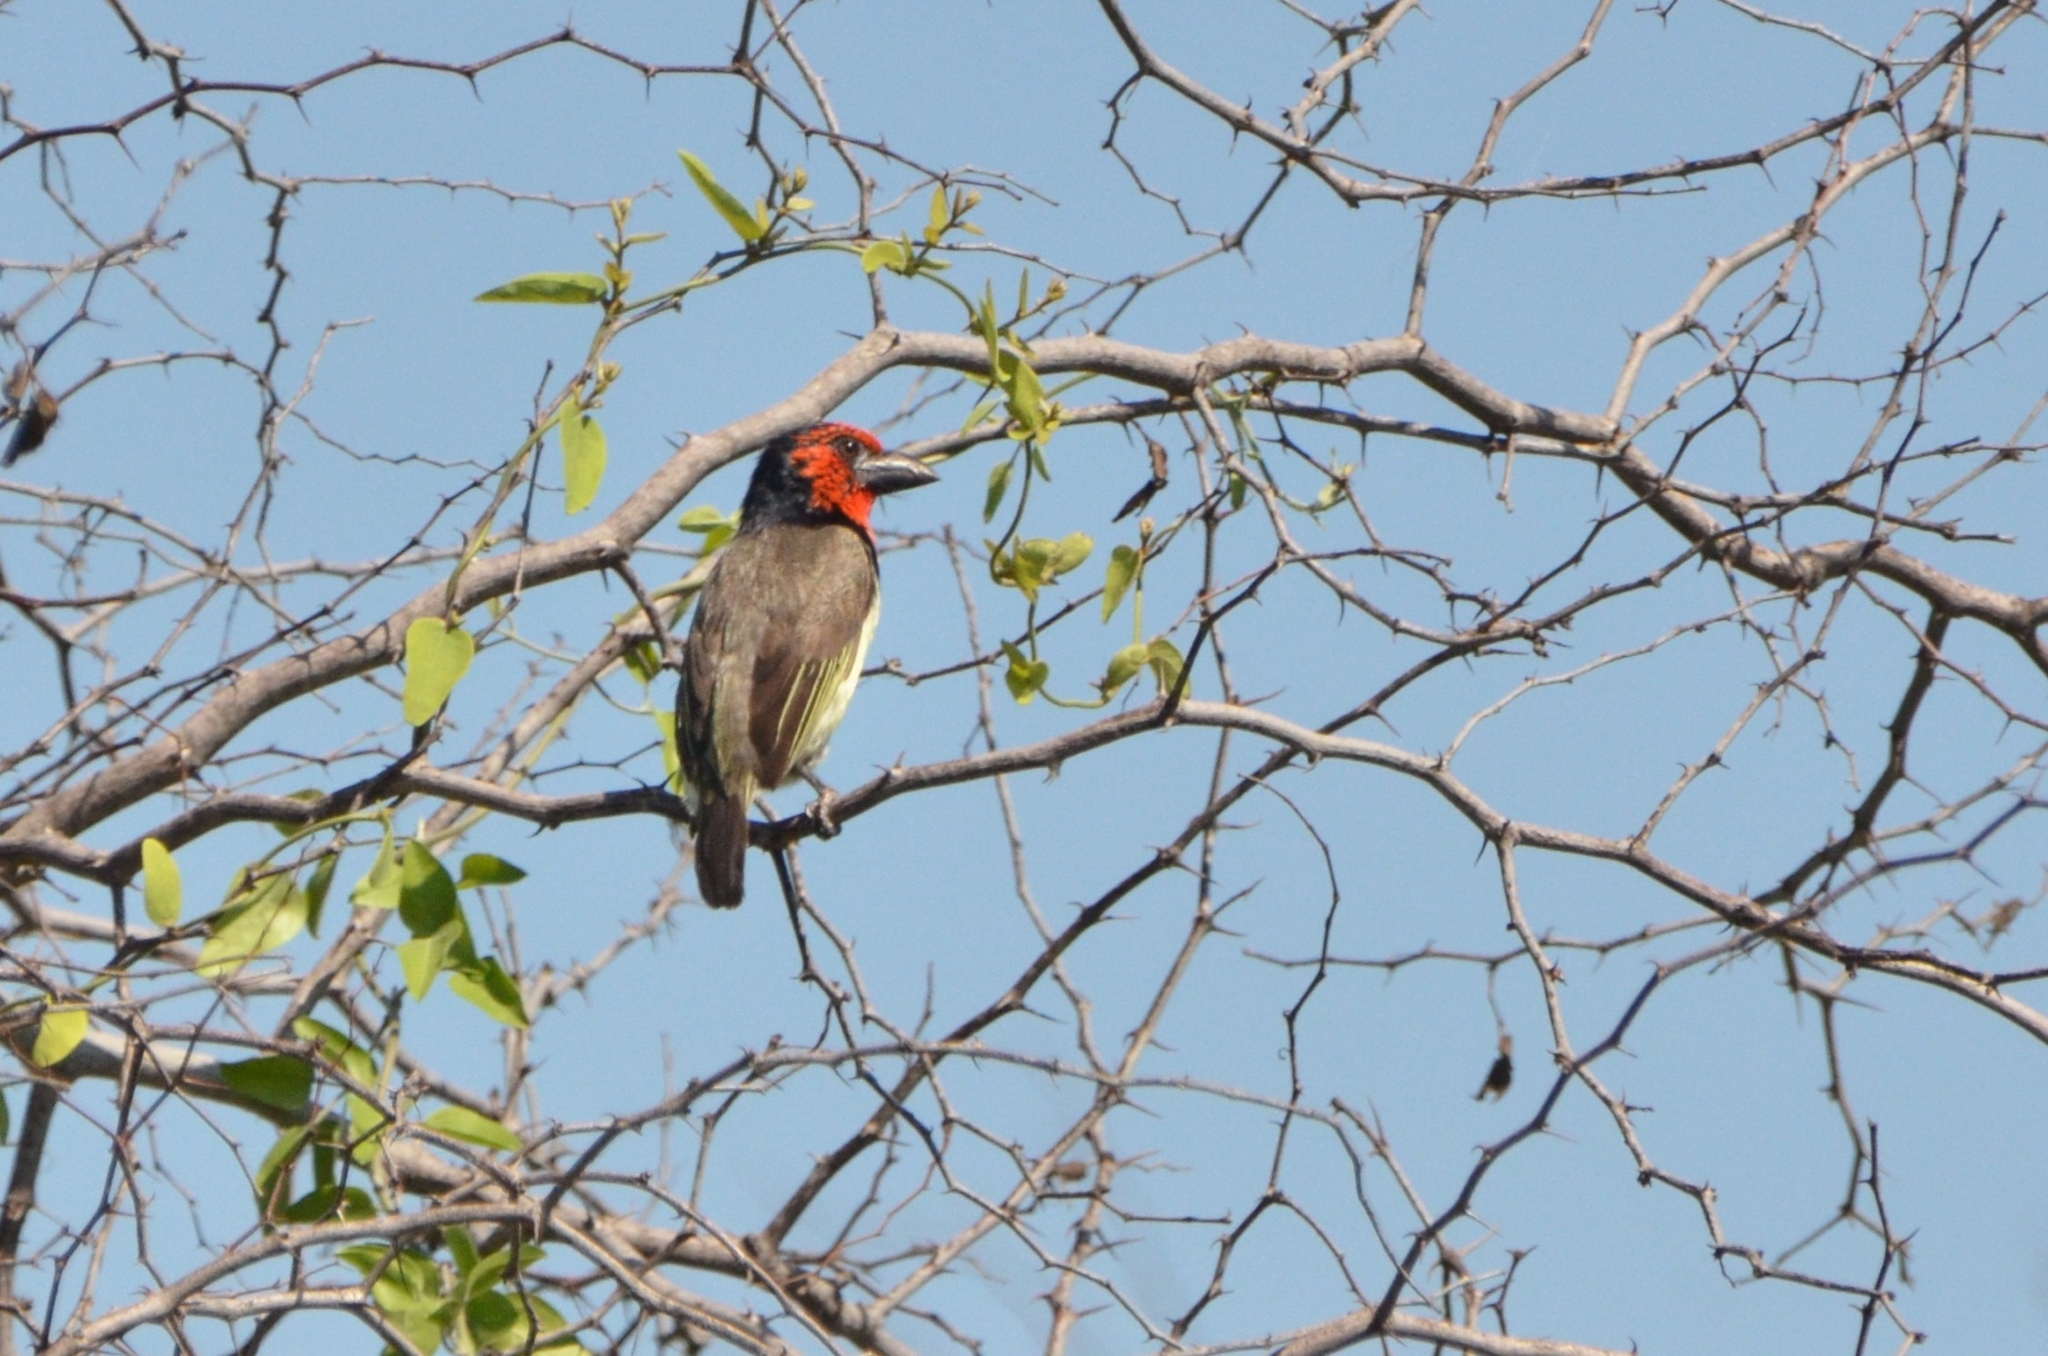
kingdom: Animalia
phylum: Chordata
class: Aves
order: Piciformes
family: Lybiidae
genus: Lybius
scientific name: Lybius torquatus
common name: Black-collared barbet
